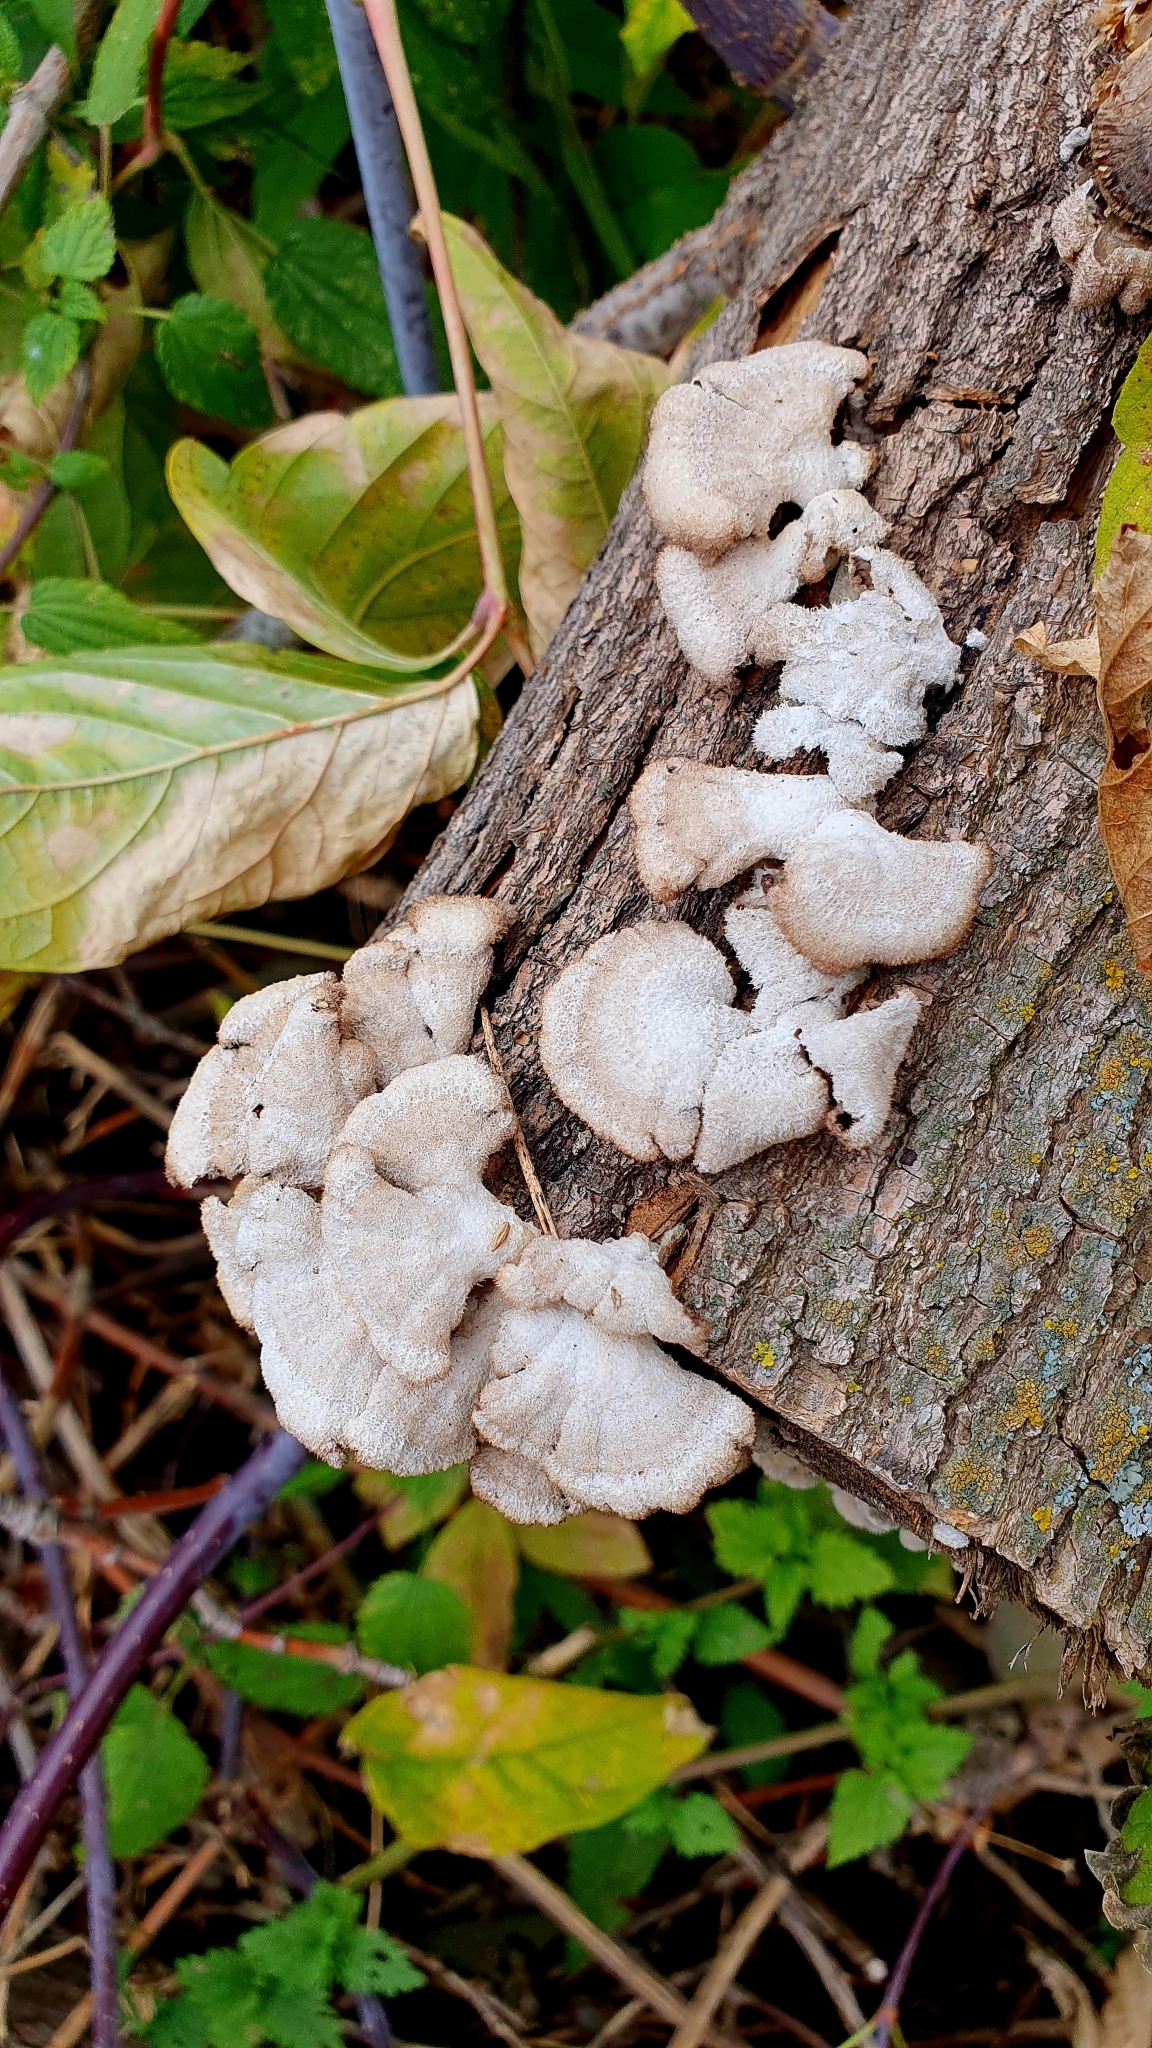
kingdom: Fungi
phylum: Basidiomycota
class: Agaricomycetes
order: Agaricales
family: Schizophyllaceae
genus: Schizophyllum
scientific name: Schizophyllum commune
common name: Common porecrust
